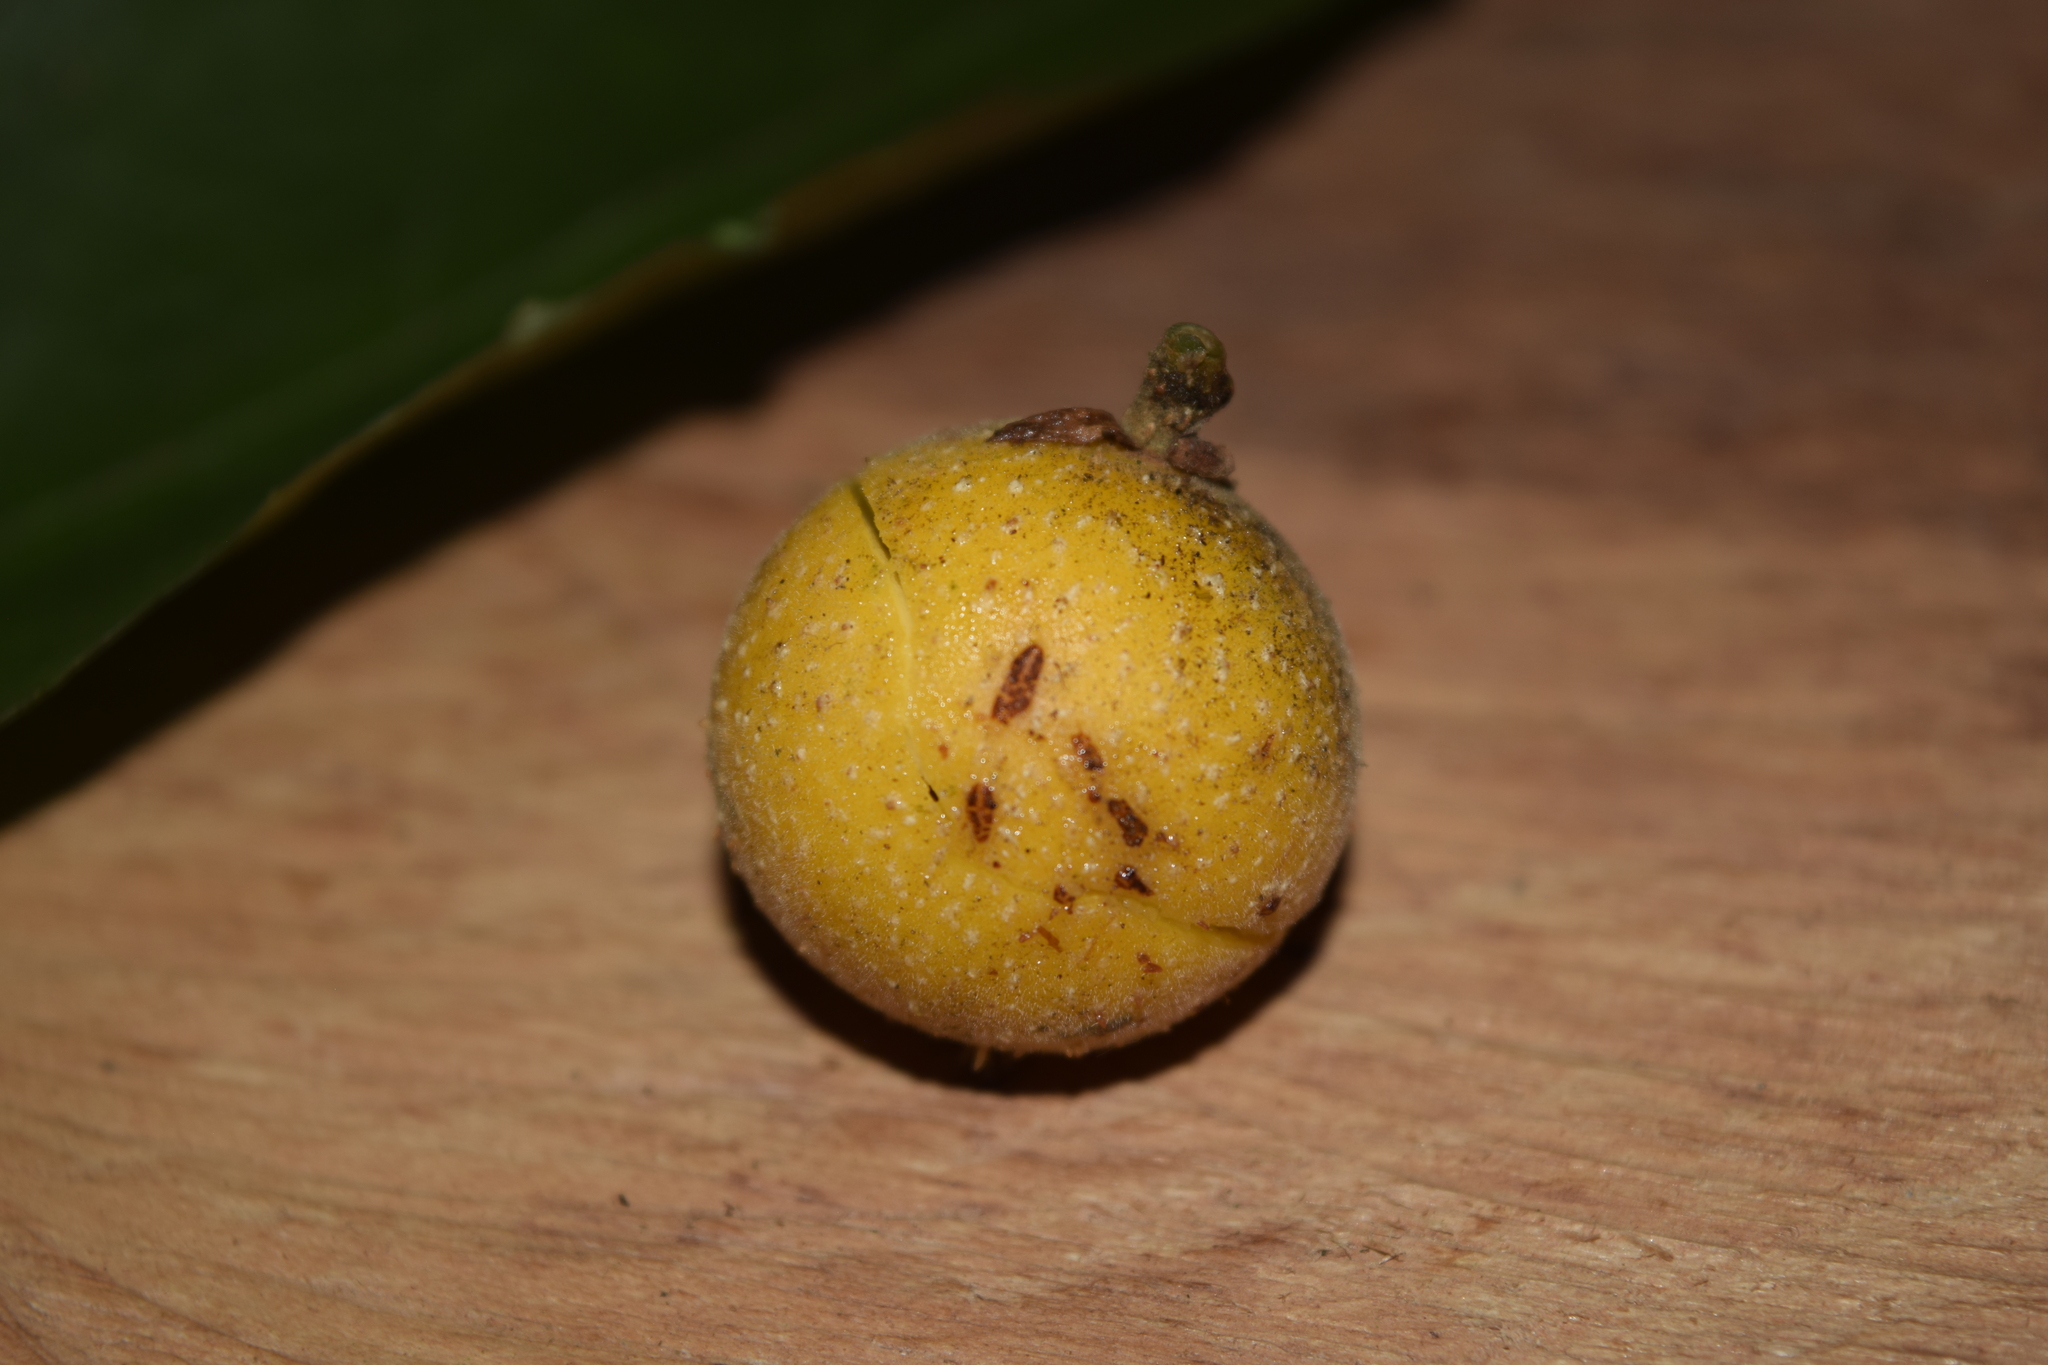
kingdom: Plantae
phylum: Tracheophyta
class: Magnoliopsida
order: Malpighiales
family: Achariaceae
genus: Mayna
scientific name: Mayna yasuniana
